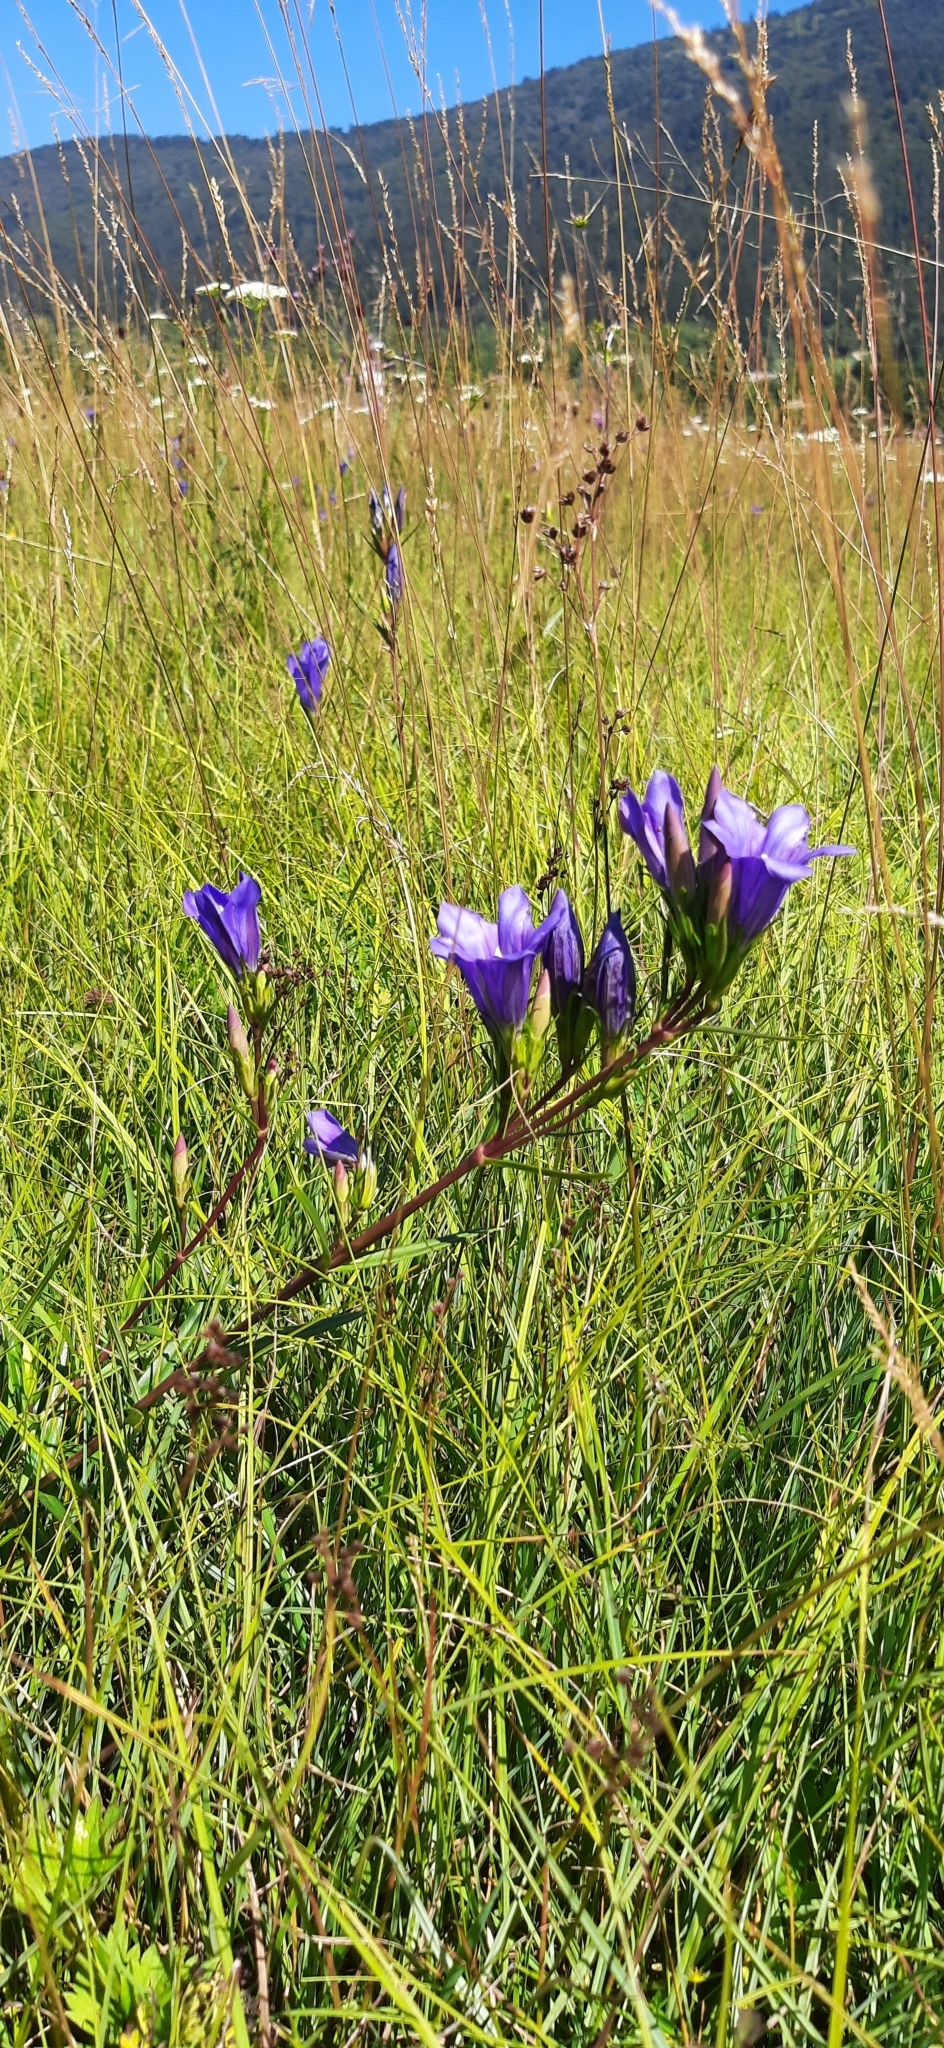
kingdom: Plantae
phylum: Tracheophyta
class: Magnoliopsida
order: Gentianales
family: Gentianaceae
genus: Gentiana
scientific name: Gentiana pneumonanthe
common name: Marsh gentian
